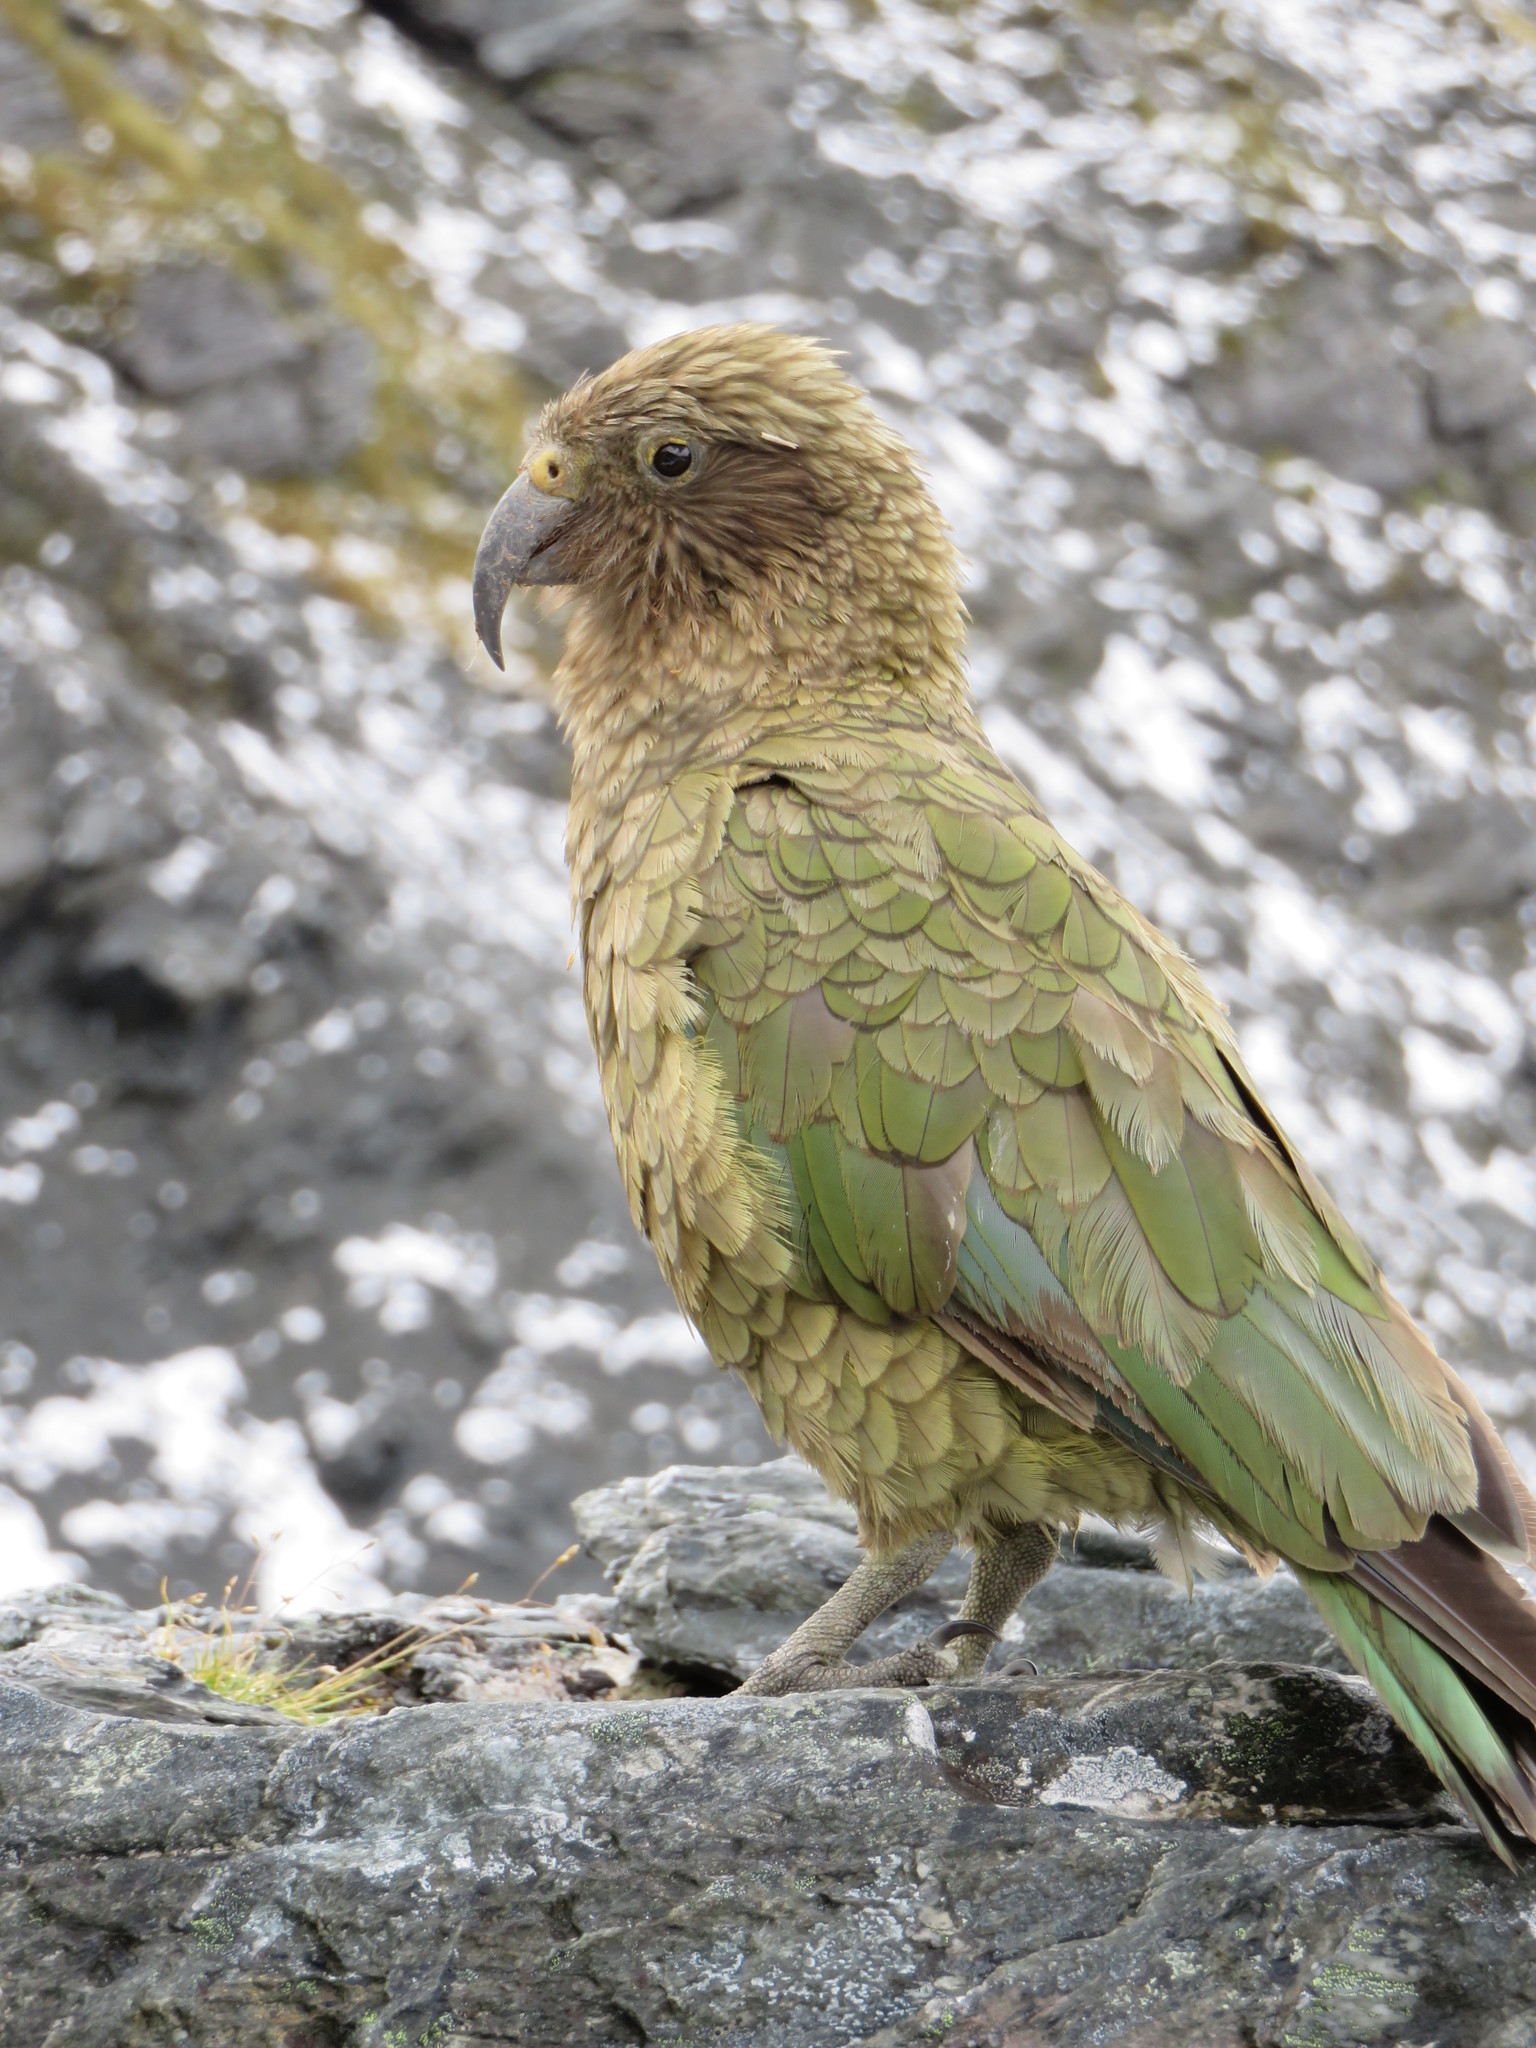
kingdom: Animalia
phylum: Chordata
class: Aves
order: Psittaciformes
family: Psittacidae
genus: Nestor
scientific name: Nestor notabilis
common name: Kea
